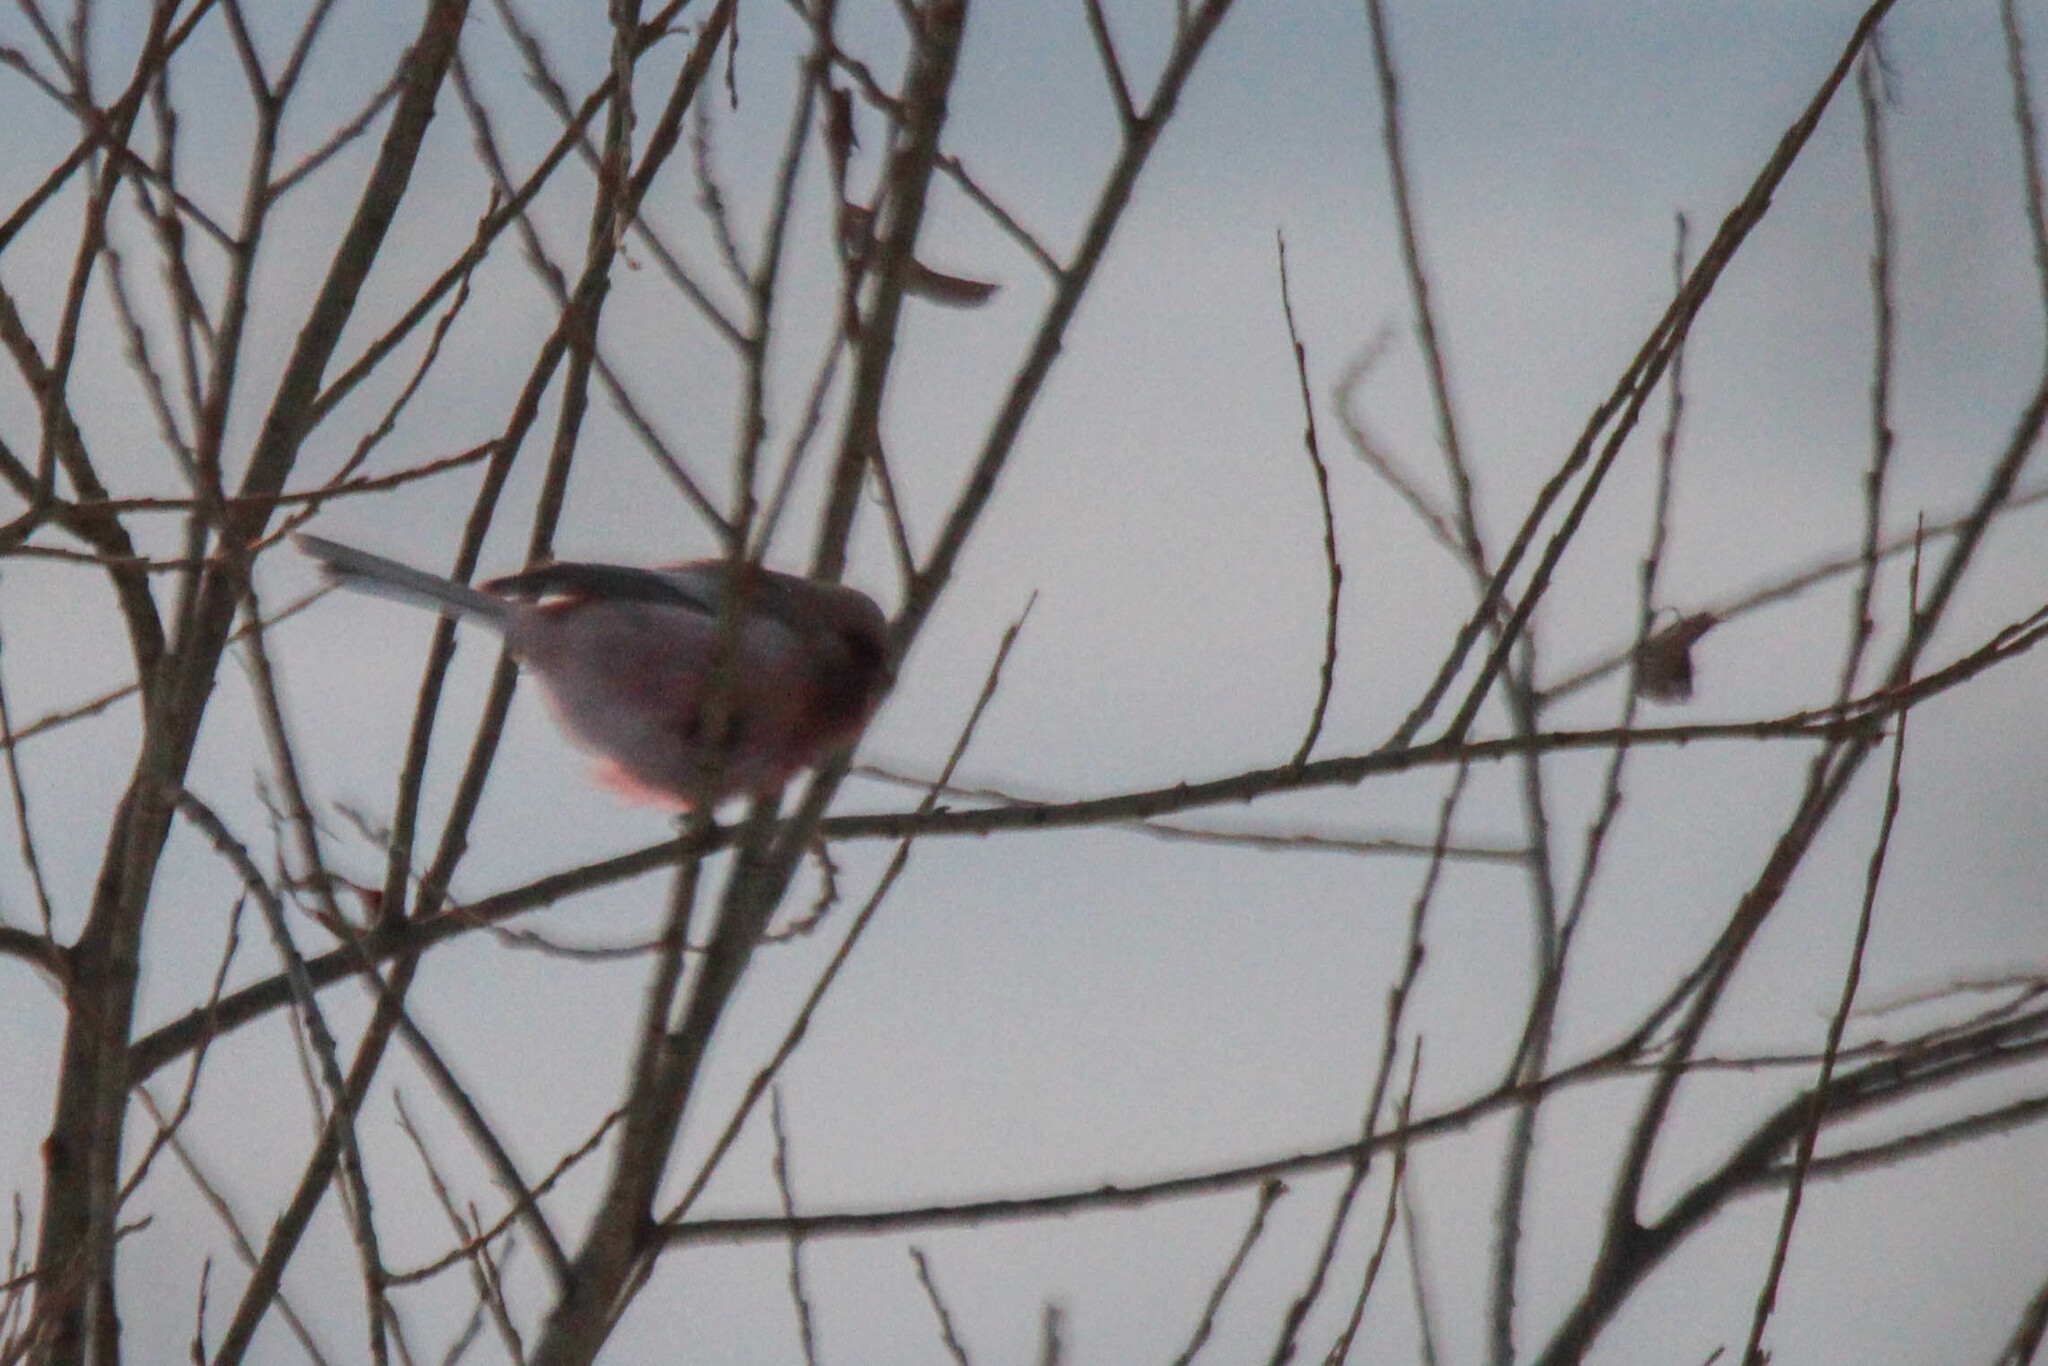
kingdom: Animalia
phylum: Chordata
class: Aves
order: Passeriformes
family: Fringillidae
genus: Carpodacus
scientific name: Carpodacus sibiricus
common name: Long-tailed rosefinch
